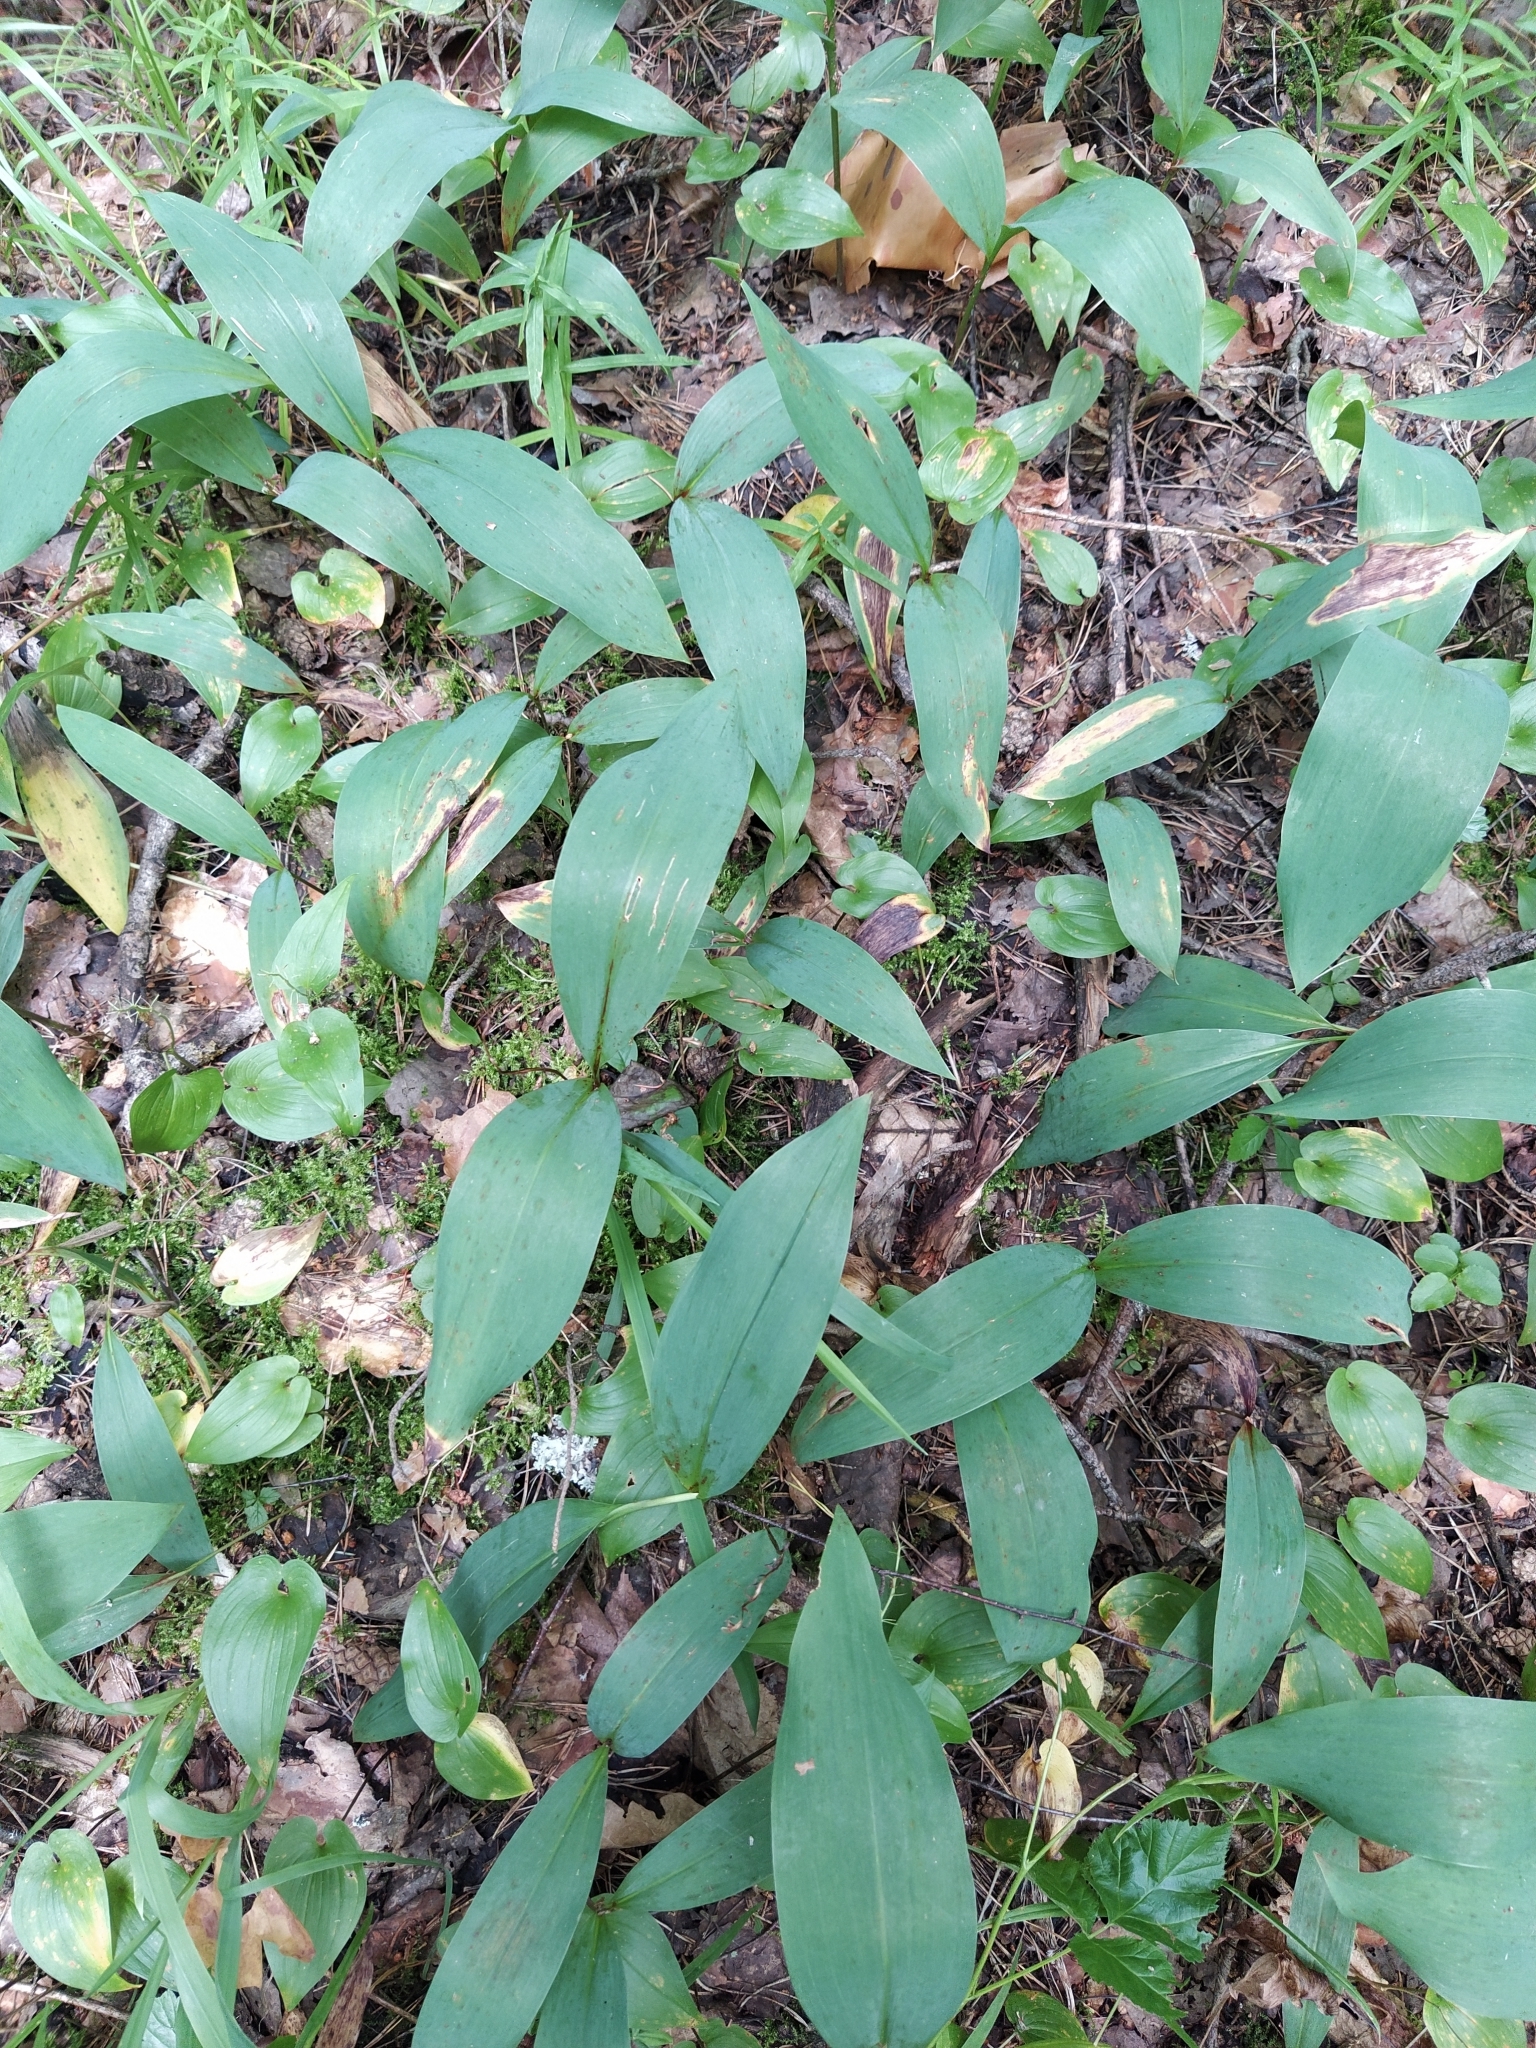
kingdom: Plantae
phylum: Tracheophyta
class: Liliopsida
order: Asparagales
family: Asparagaceae
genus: Convallaria
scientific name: Convallaria majalis
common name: Lily-of-the-valley
